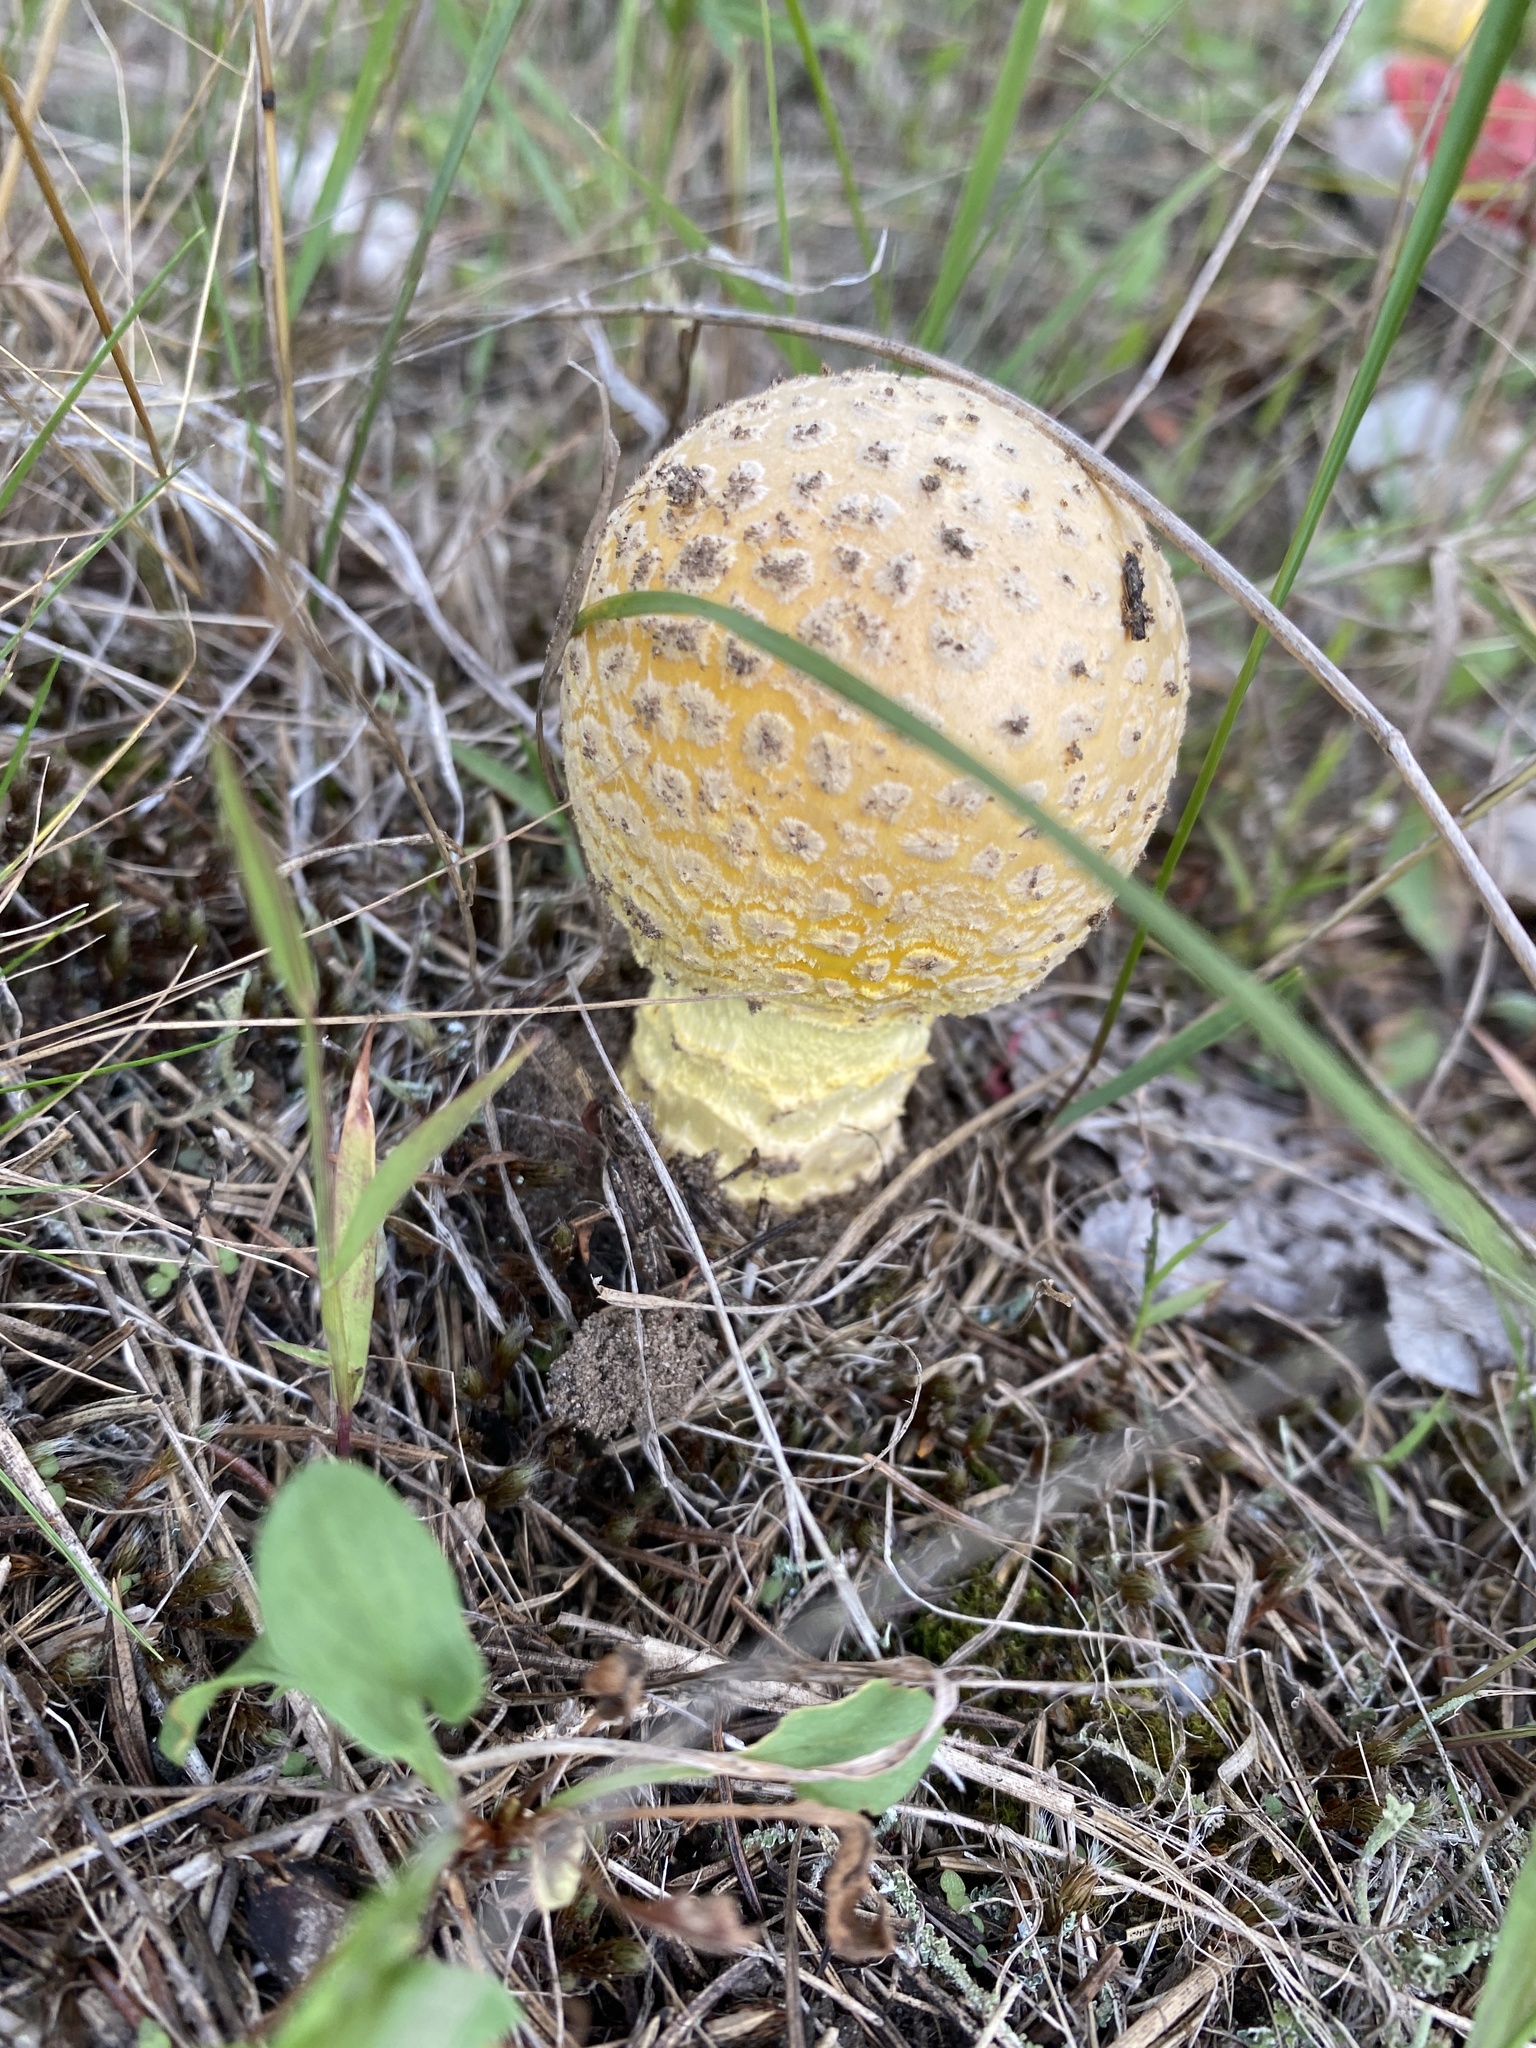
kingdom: Fungi
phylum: Basidiomycota
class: Agaricomycetes
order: Agaricales
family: Amanitaceae
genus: Amanita
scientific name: Amanita muscaria
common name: Fly agaric
